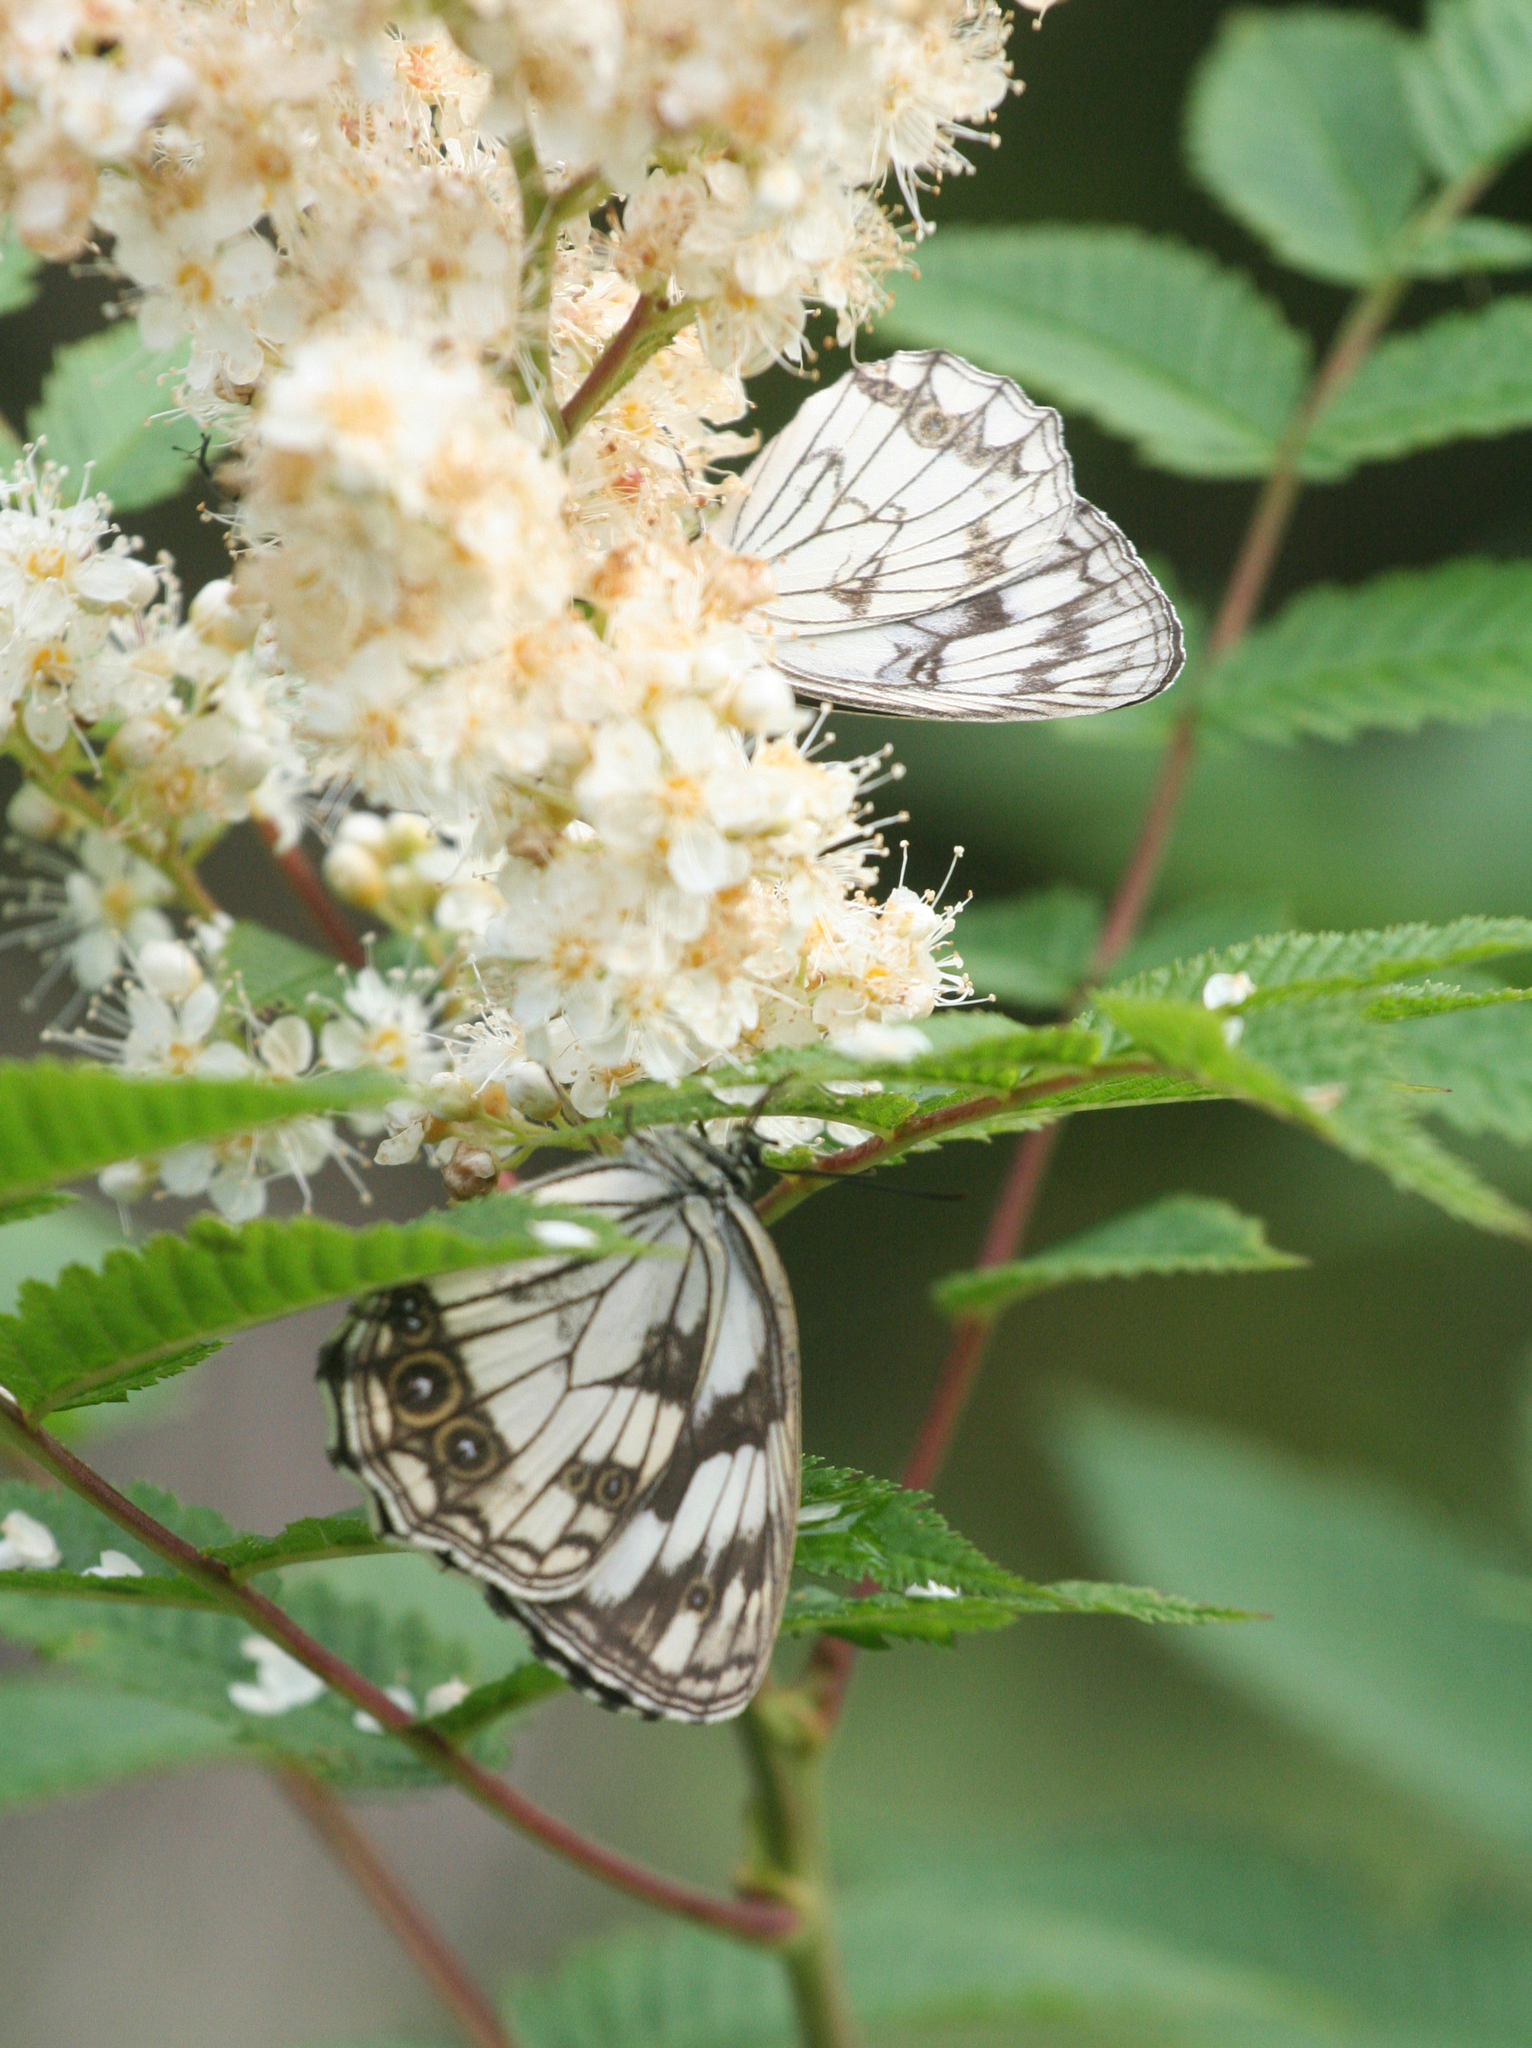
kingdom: Animalia
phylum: Arthropoda
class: Insecta
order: Lepidoptera
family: Nymphalidae
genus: Melanargia
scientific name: Melanargia halimede
